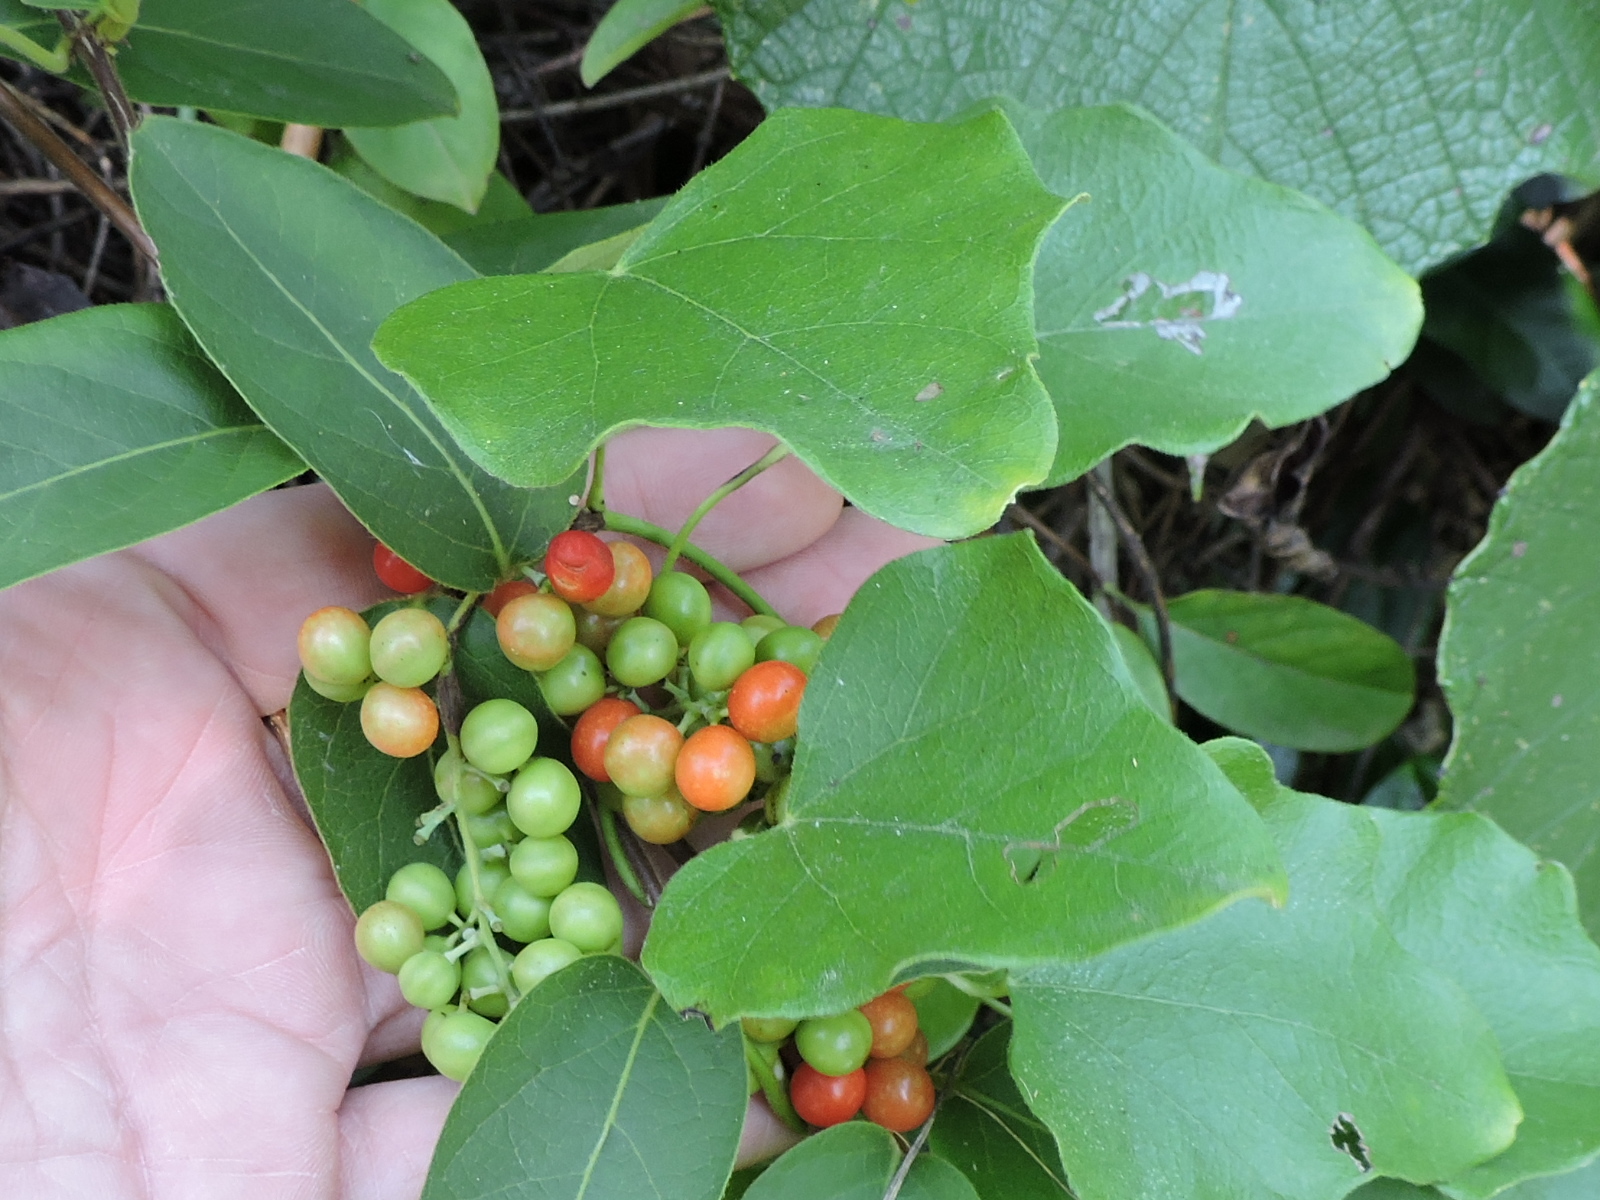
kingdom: Plantae
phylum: Tracheophyta
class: Magnoliopsida
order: Ranunculales
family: Menispermaceae
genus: Cocculus
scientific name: Cocculus carolinus
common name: Carolina moonseed
